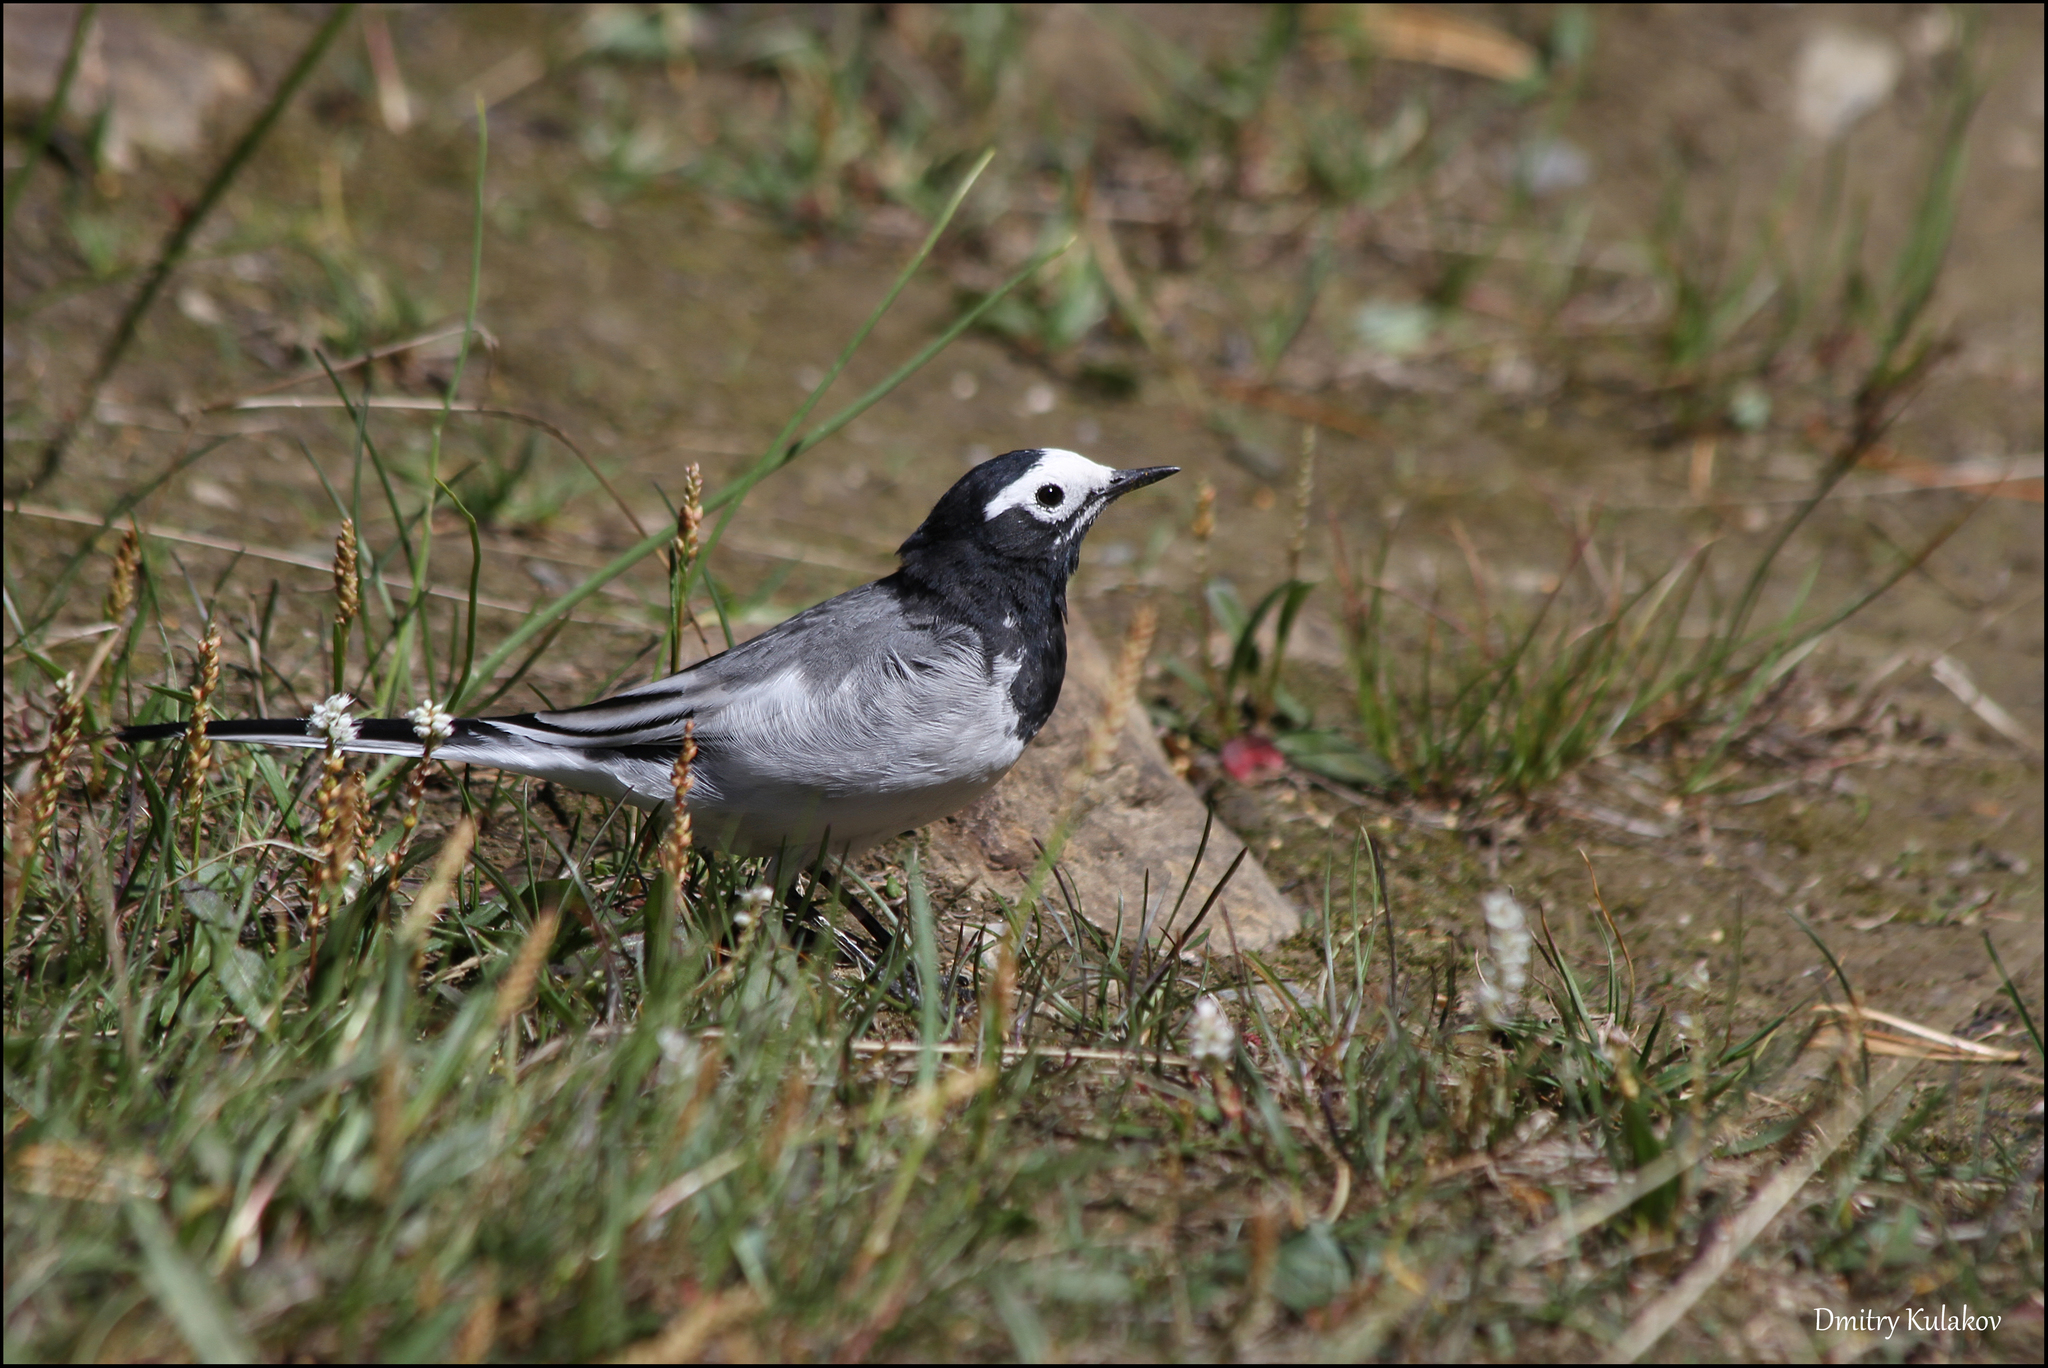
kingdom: Animalia
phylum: Chordata
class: Aves
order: Passeriformes
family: Motacillidae
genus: Motacilla
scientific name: Motacilla alba
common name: White wagtail
